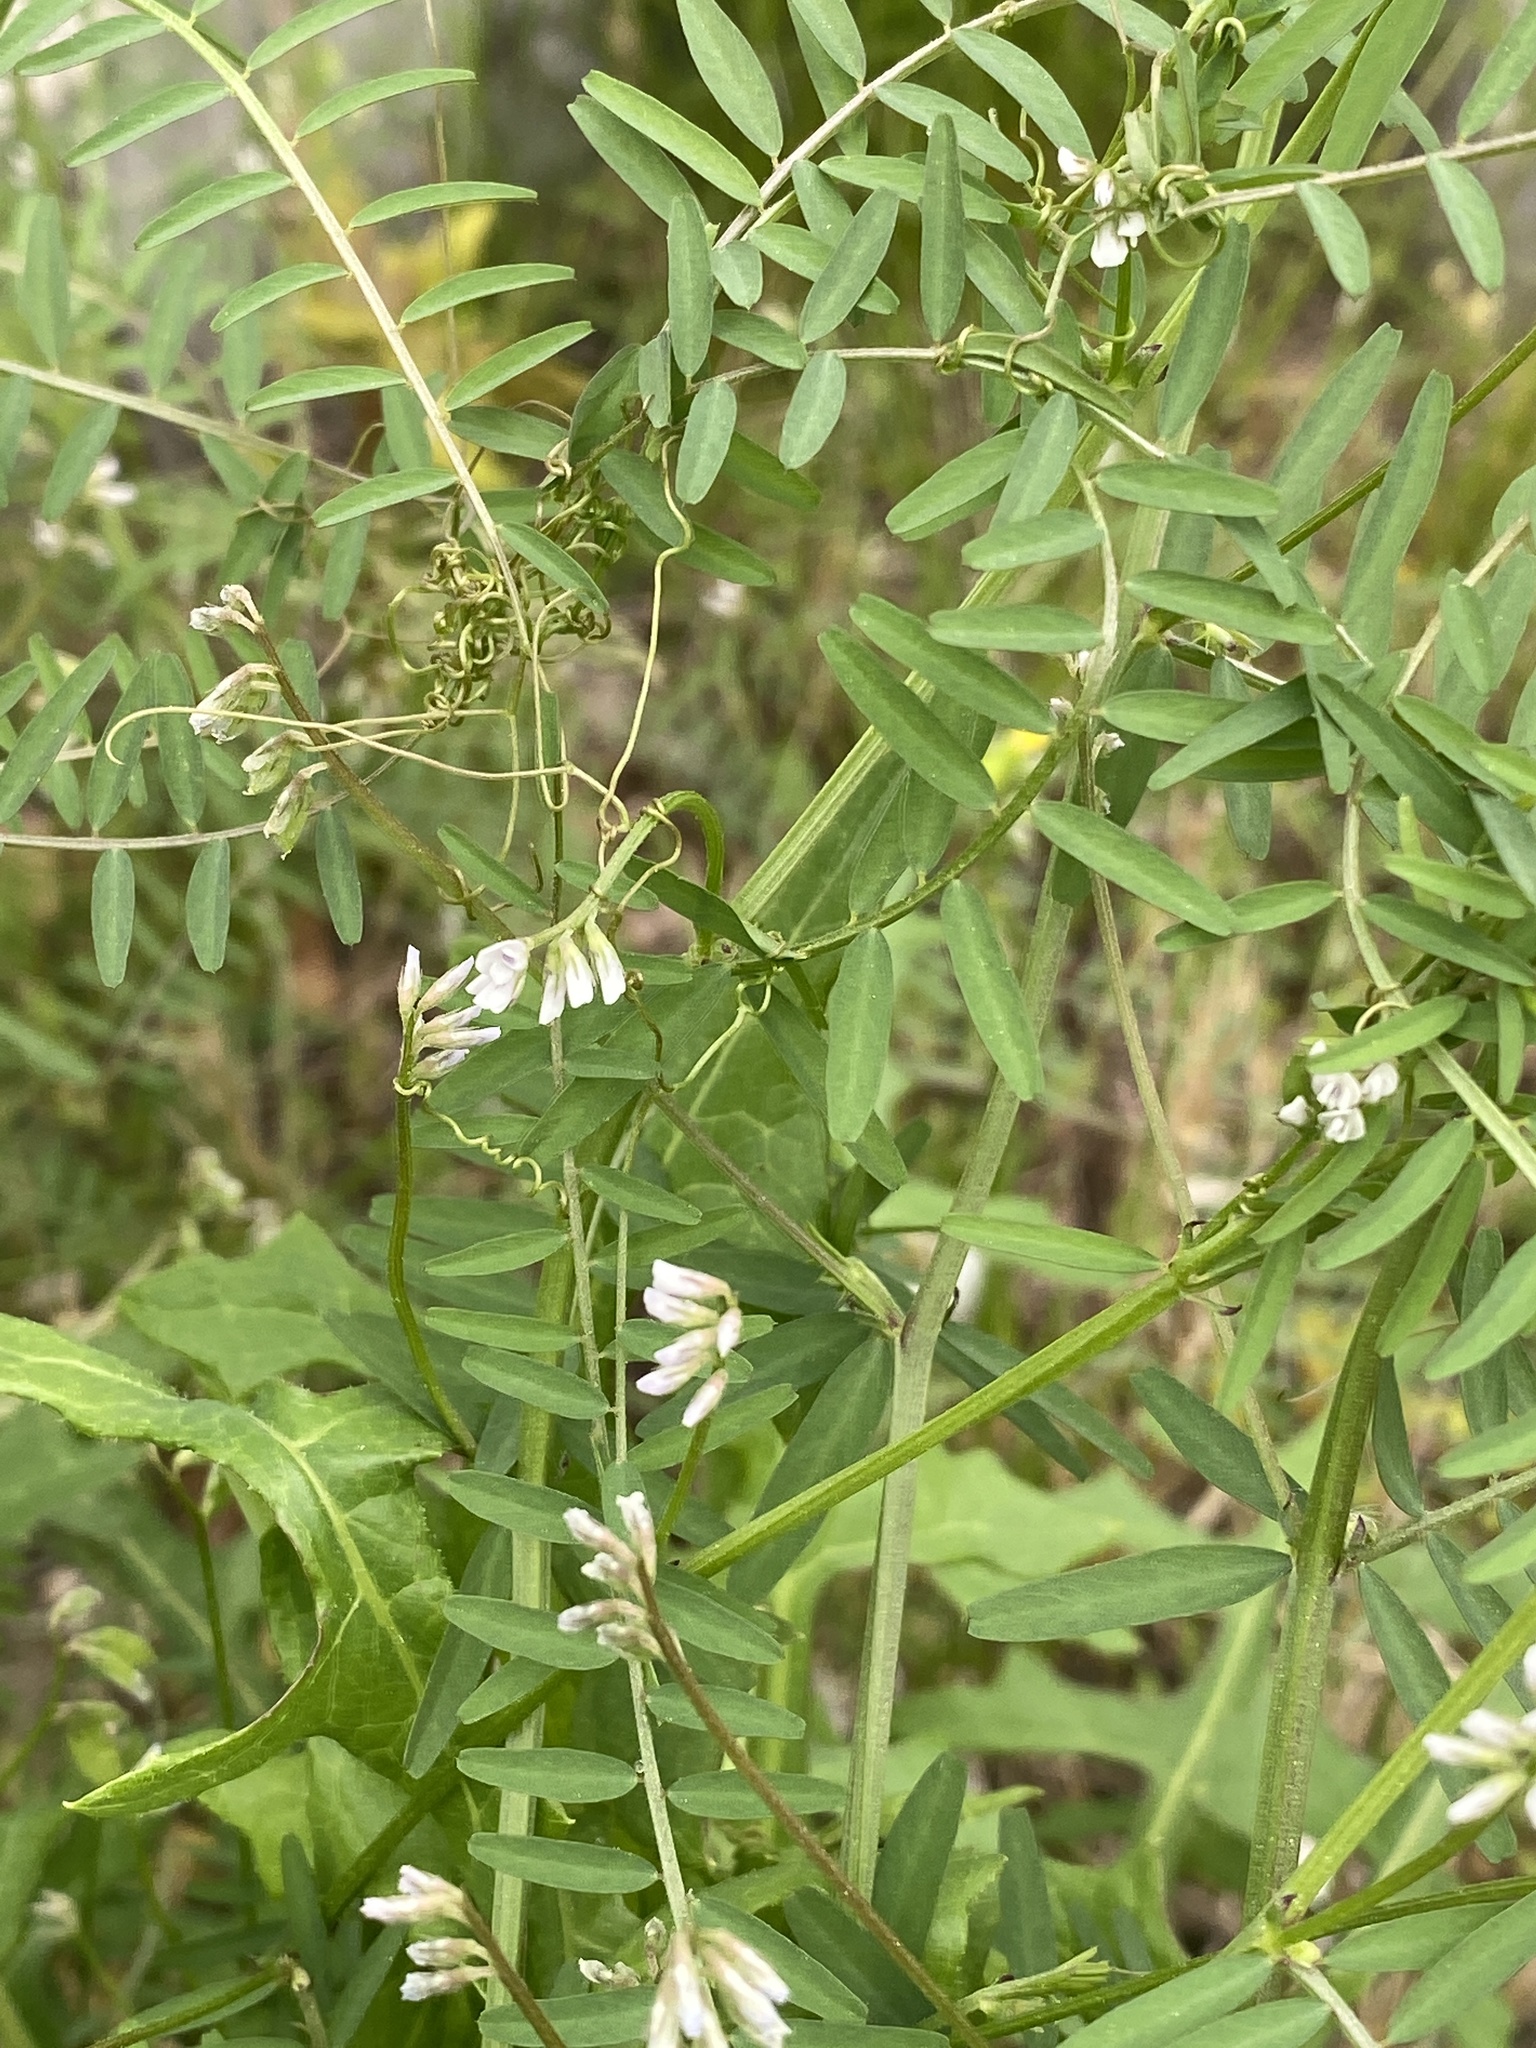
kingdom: Plantae
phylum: Tracheophyta
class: Magnoliopsida
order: Fabales
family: Fabaceae
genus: Vicia
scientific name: Vicia hirsuta
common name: Tiny vetch
